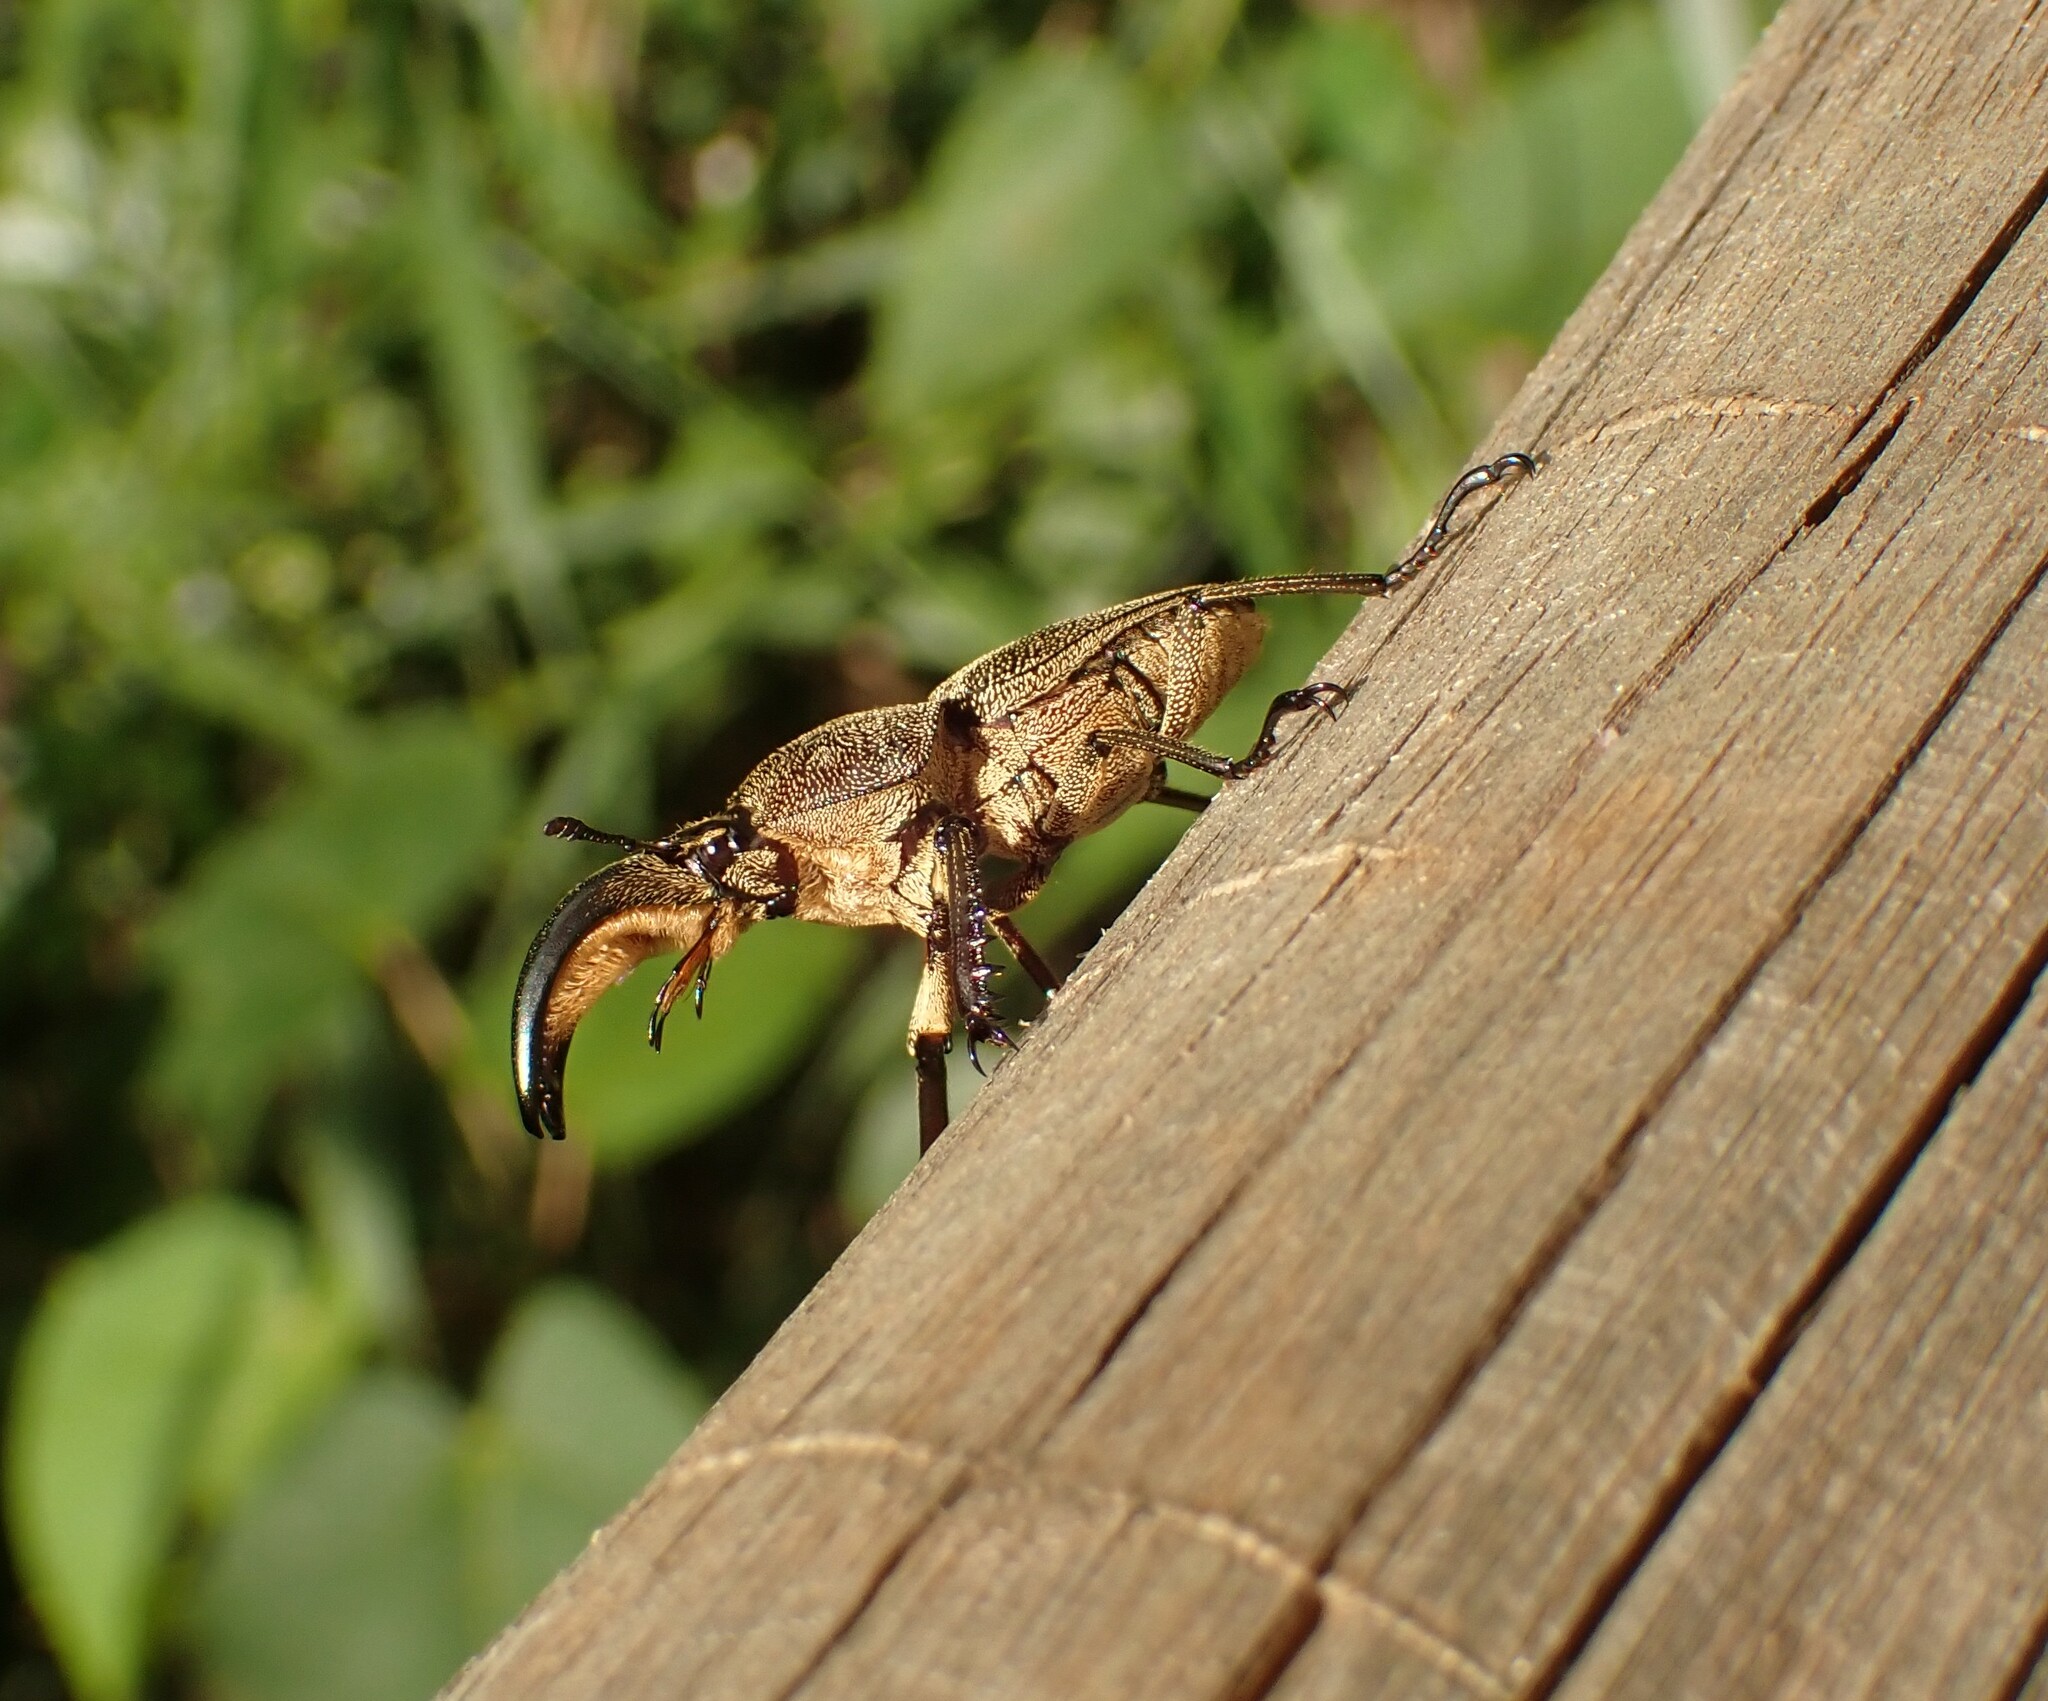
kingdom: Animalia
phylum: Arthropoda
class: Insecta
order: Coleoptera
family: Lucanidae
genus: Casignetus
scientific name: Casignetus humboldti
